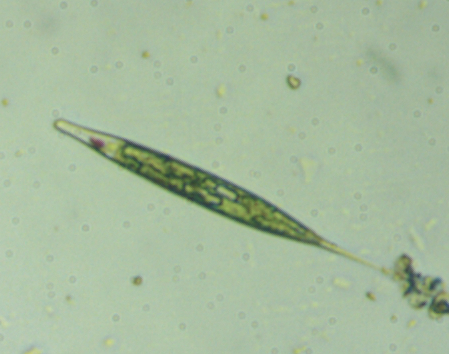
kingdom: Protozoa
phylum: Euglenozoa
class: Euglenoidea
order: Euglenida
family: Phacidae
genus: Lepocinclis
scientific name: Lepocinclis acus
